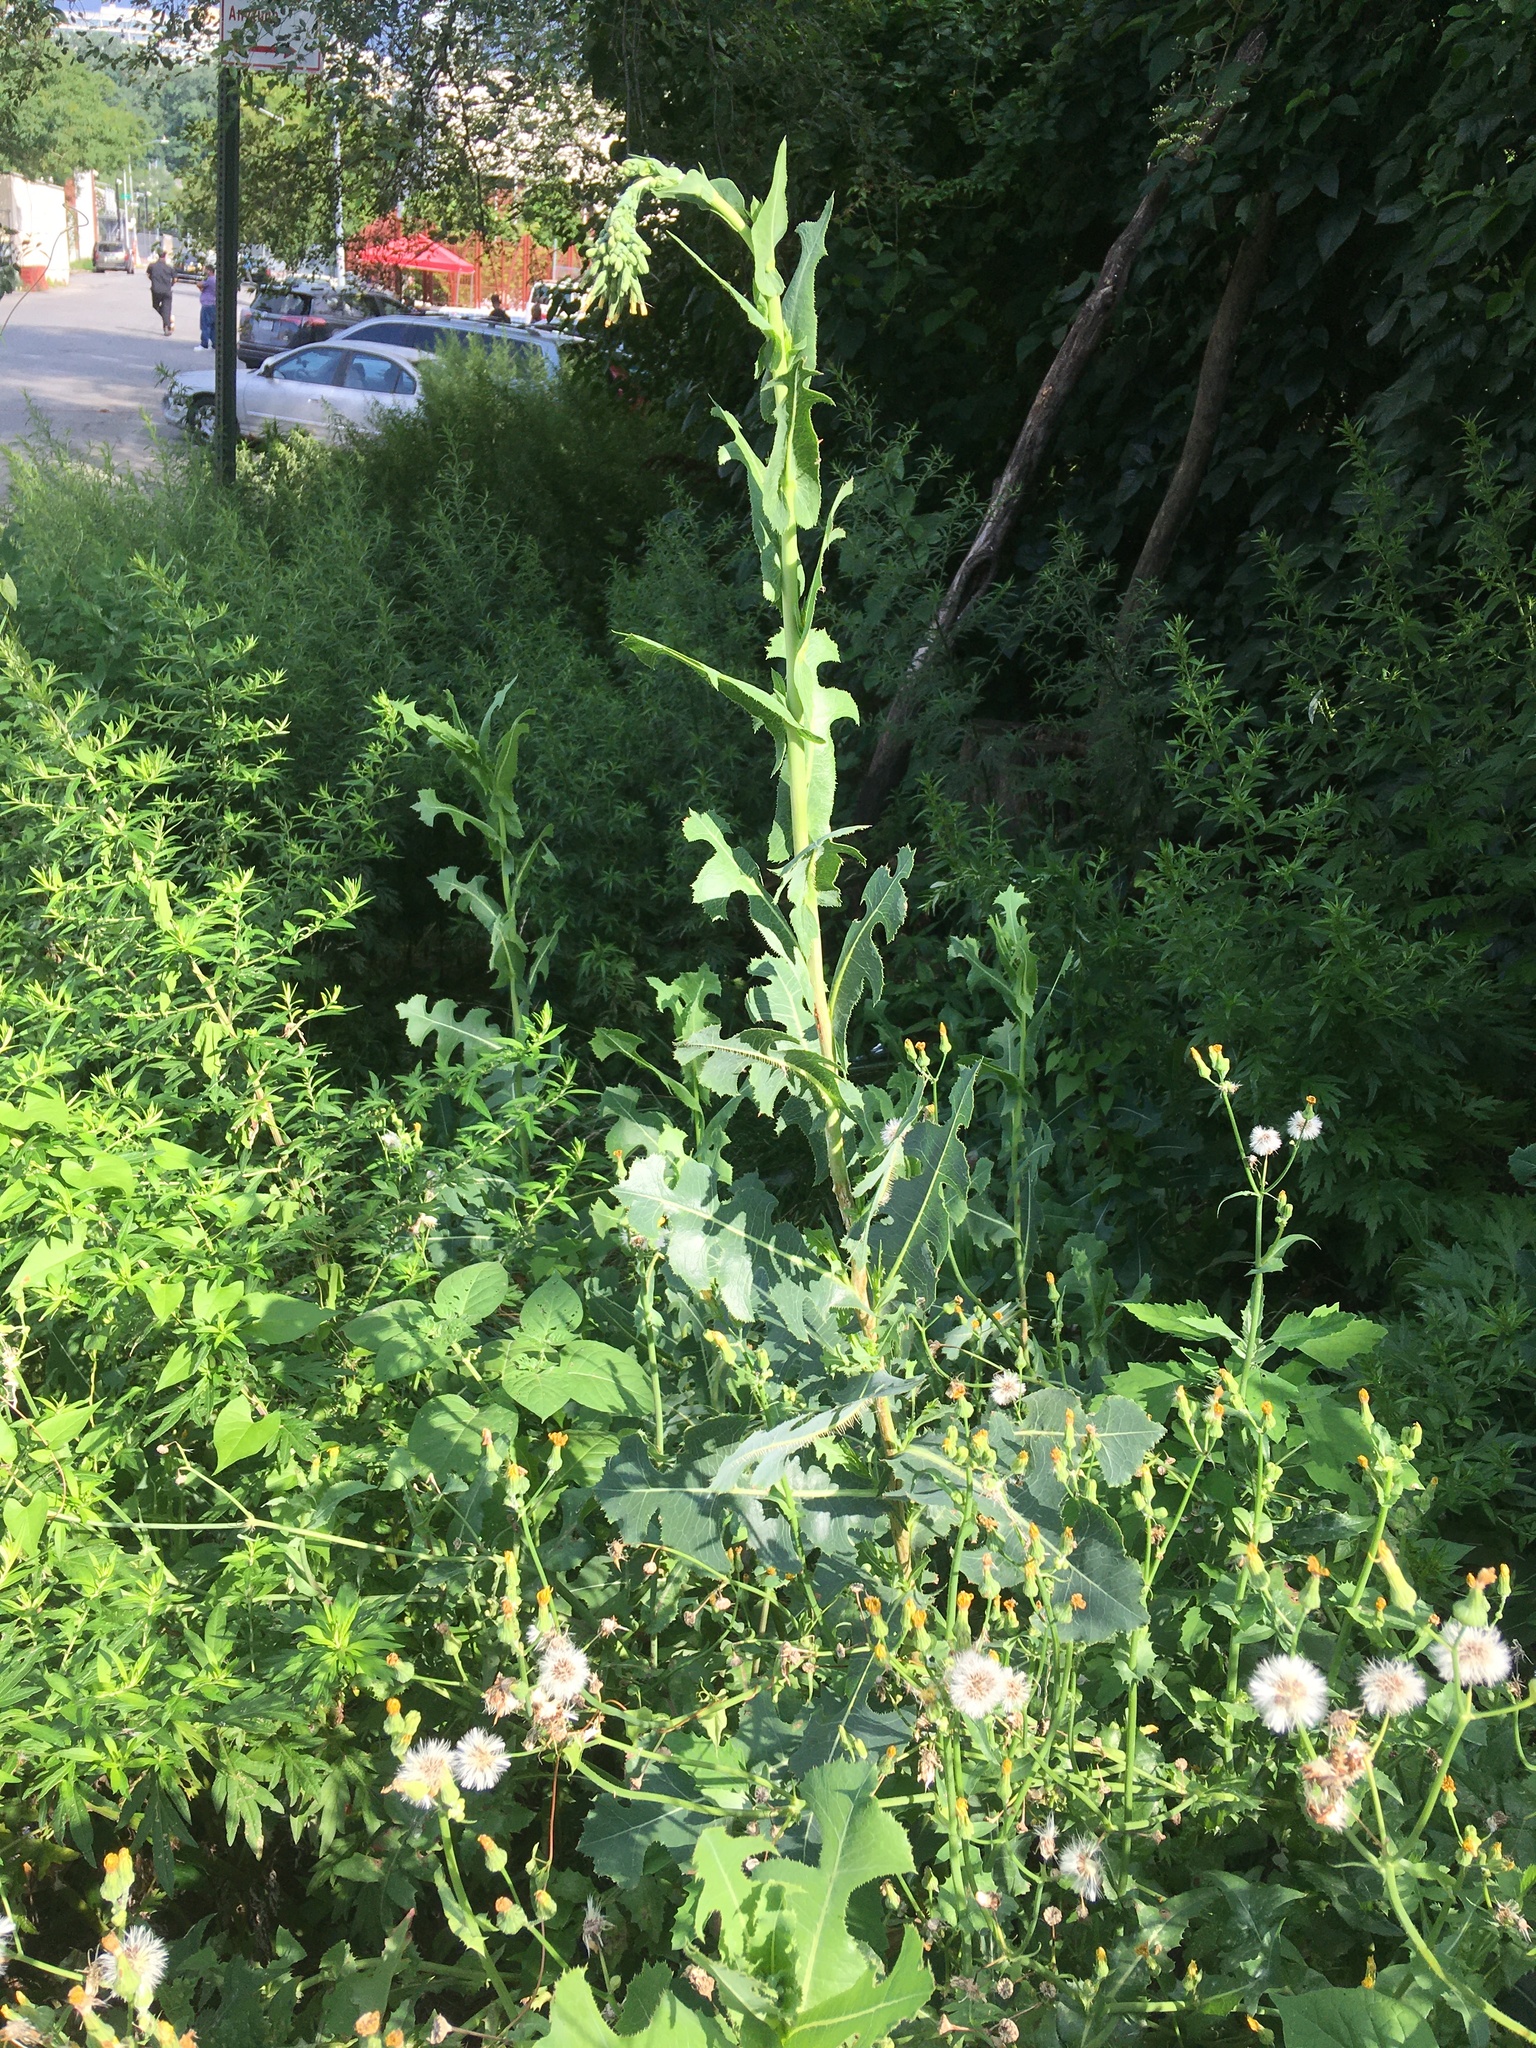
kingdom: Plantae
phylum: Tracheophyta
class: Magnoliopsida
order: Asterales
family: Asteraceae
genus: Lactuca
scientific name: Lactuca serriola
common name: Prickly lettuce
